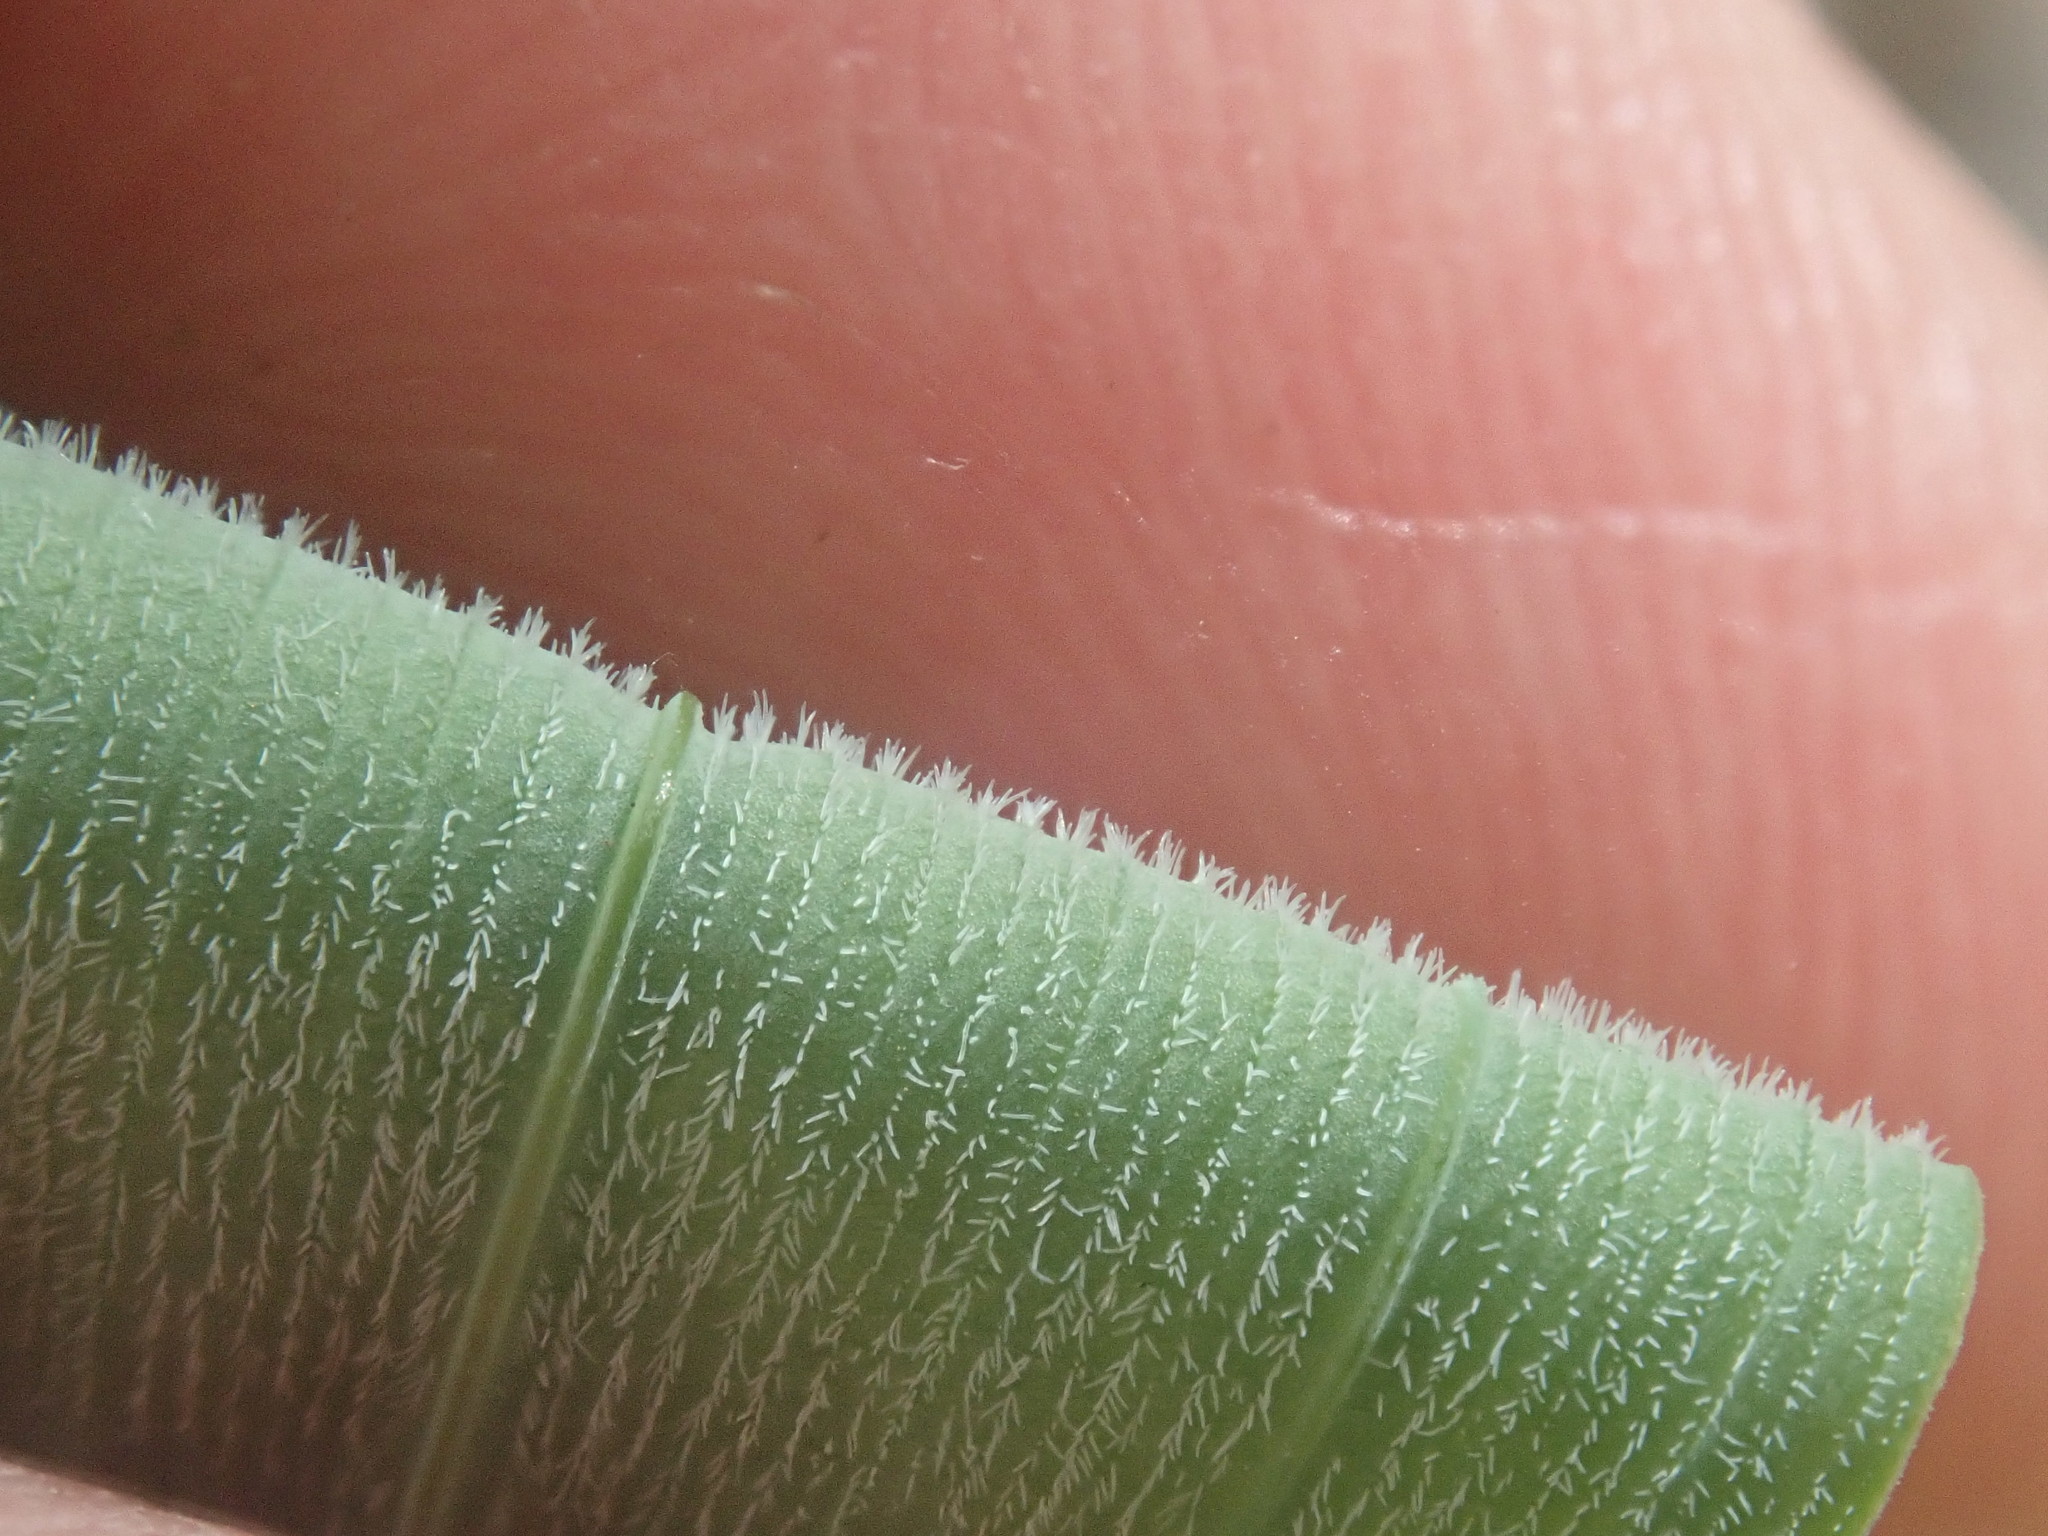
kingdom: Plantae
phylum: Tracheophyta
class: Liliopsida
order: Asparagales
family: Asparagaceae
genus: Polygonatum
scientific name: Polygonatum pubescens
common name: Downy solomon's seal
